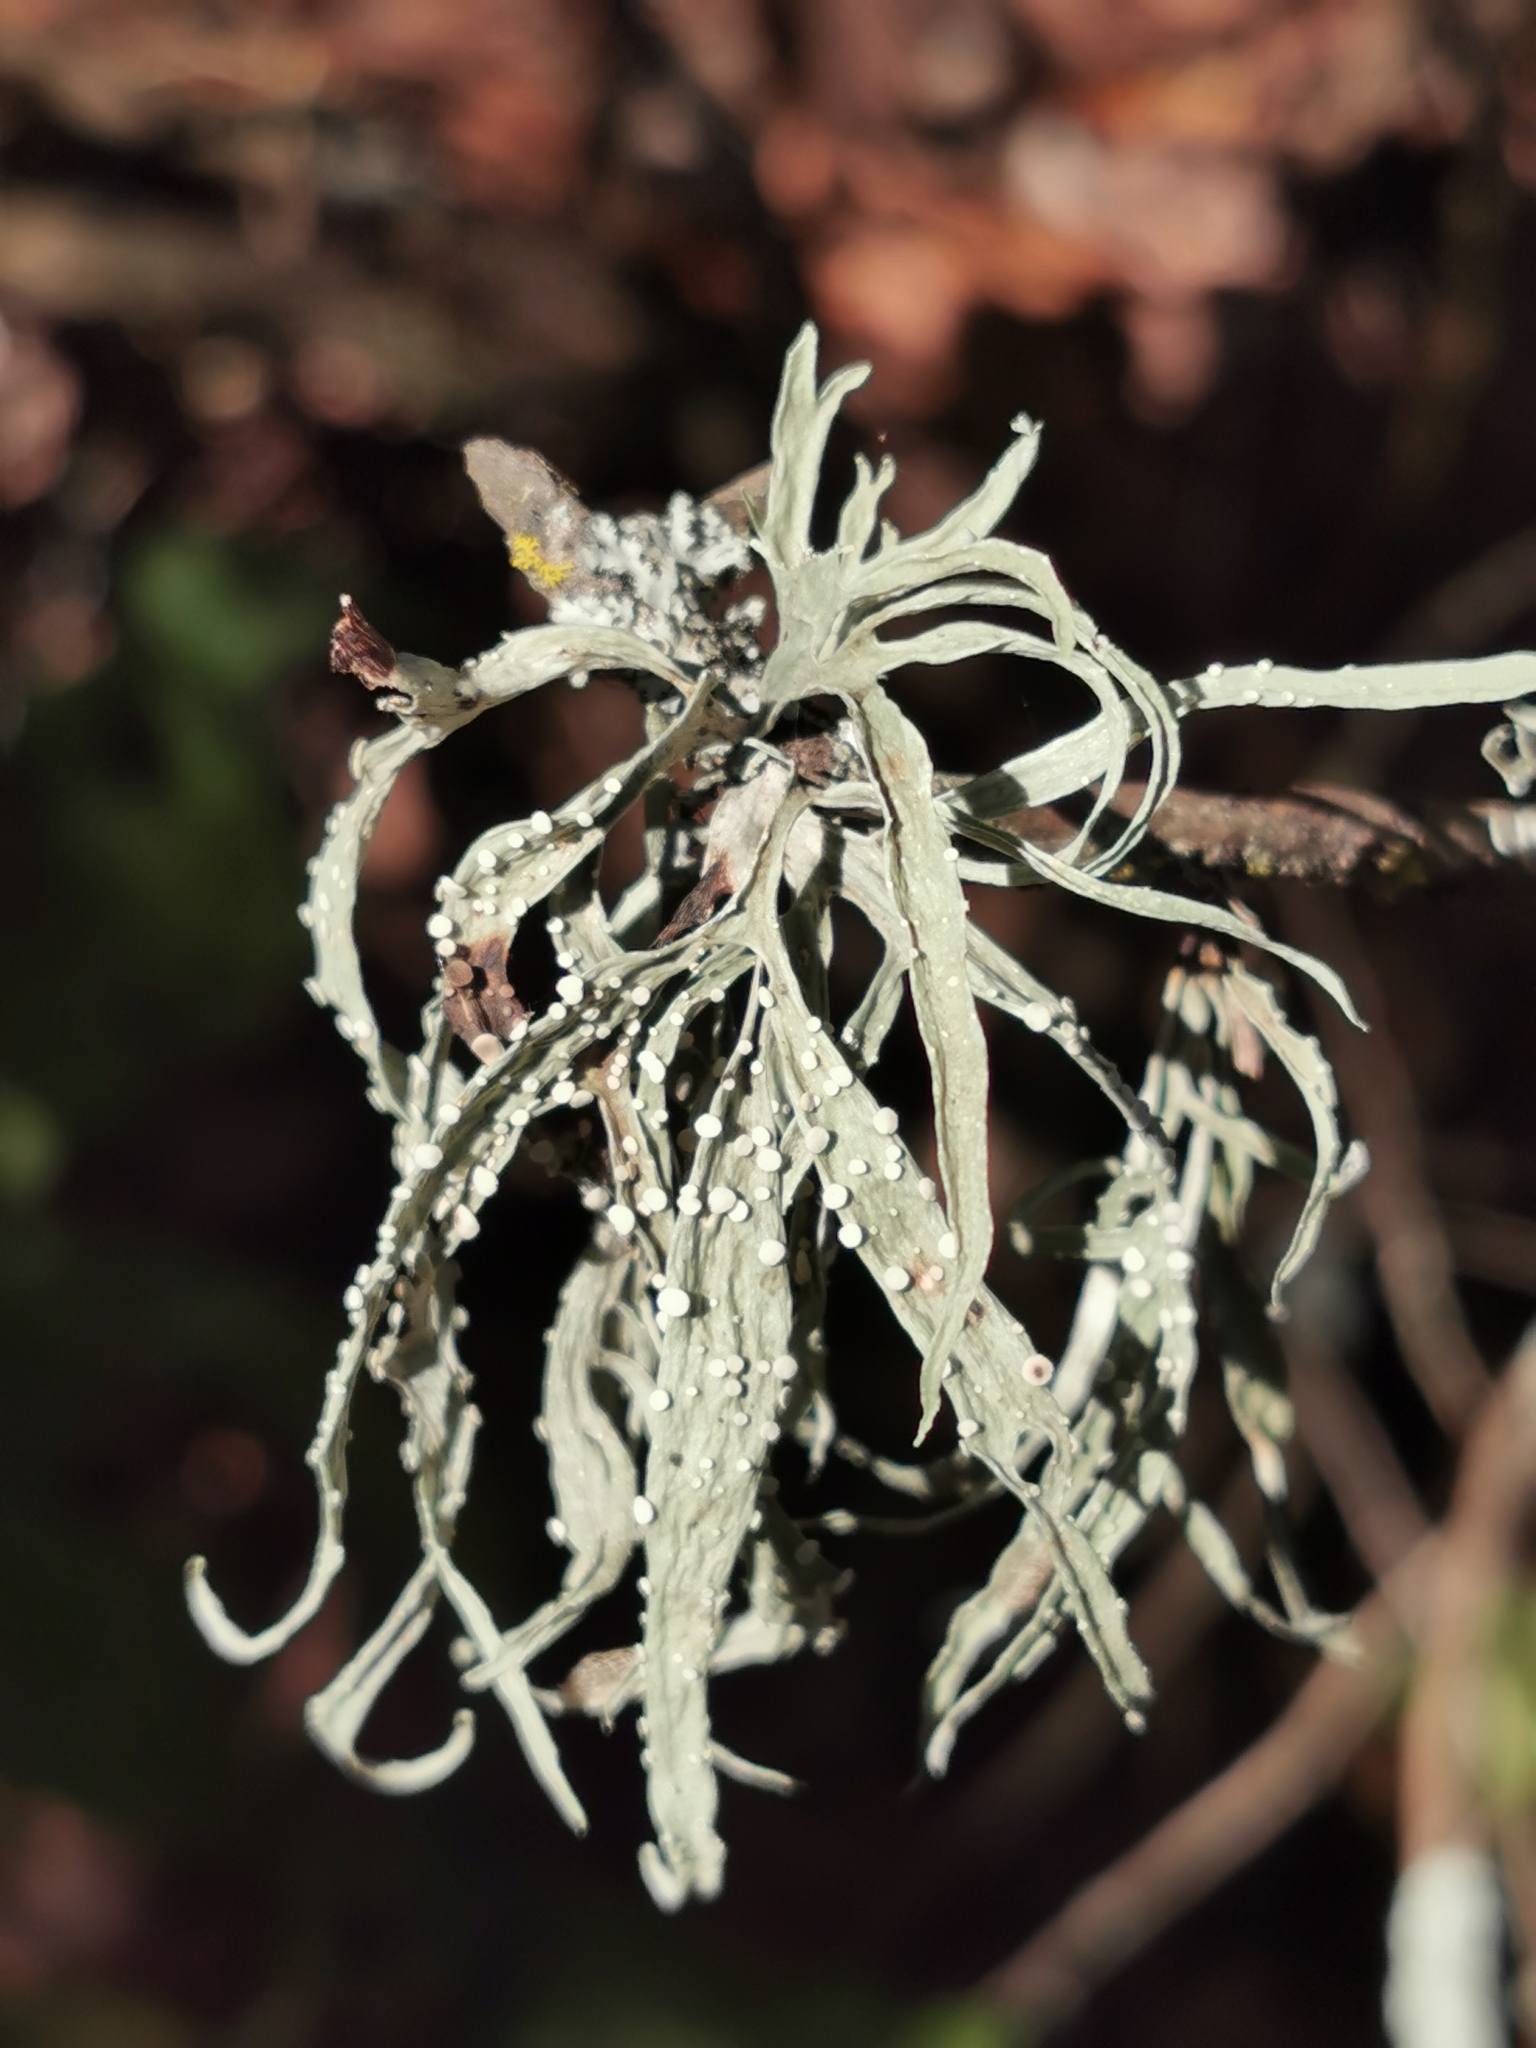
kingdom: Fungi
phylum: Ascomycota
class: Lecanoromycetes
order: Lecanorales
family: Ramalinaceae
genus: Ramalina
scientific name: Ramalina celastri
